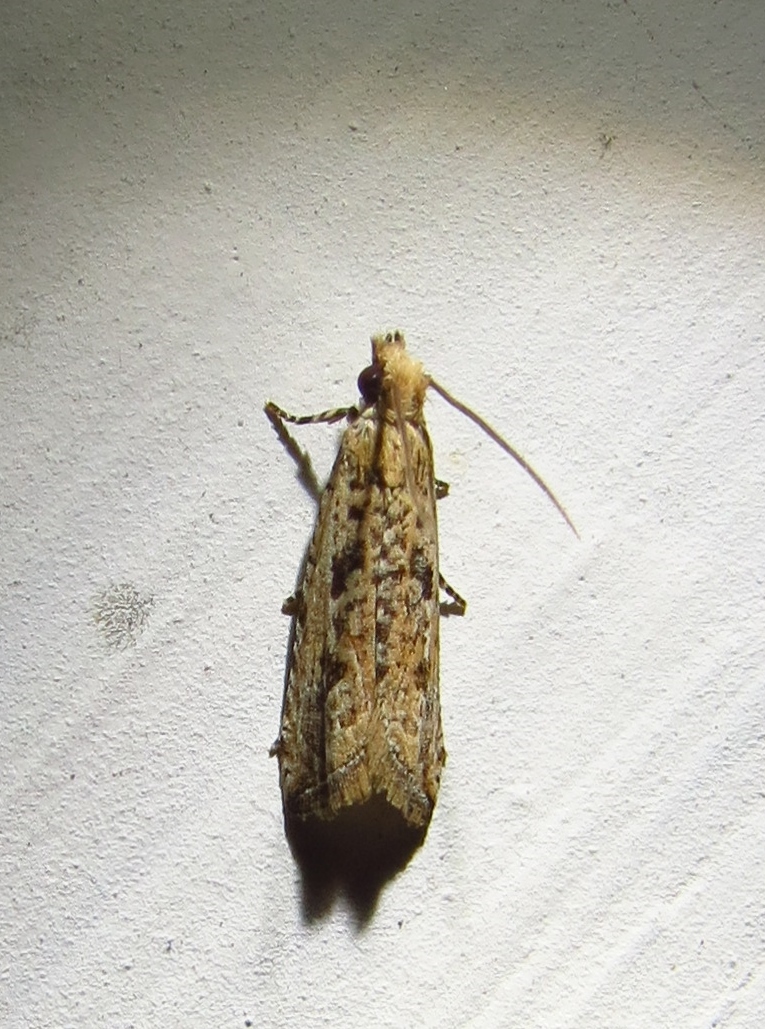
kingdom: Animalia
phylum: Arthropoda
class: Insecta
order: Lepidoptera
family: Tortricidae
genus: Bactra
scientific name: Bactra verutana
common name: Javelin moth
